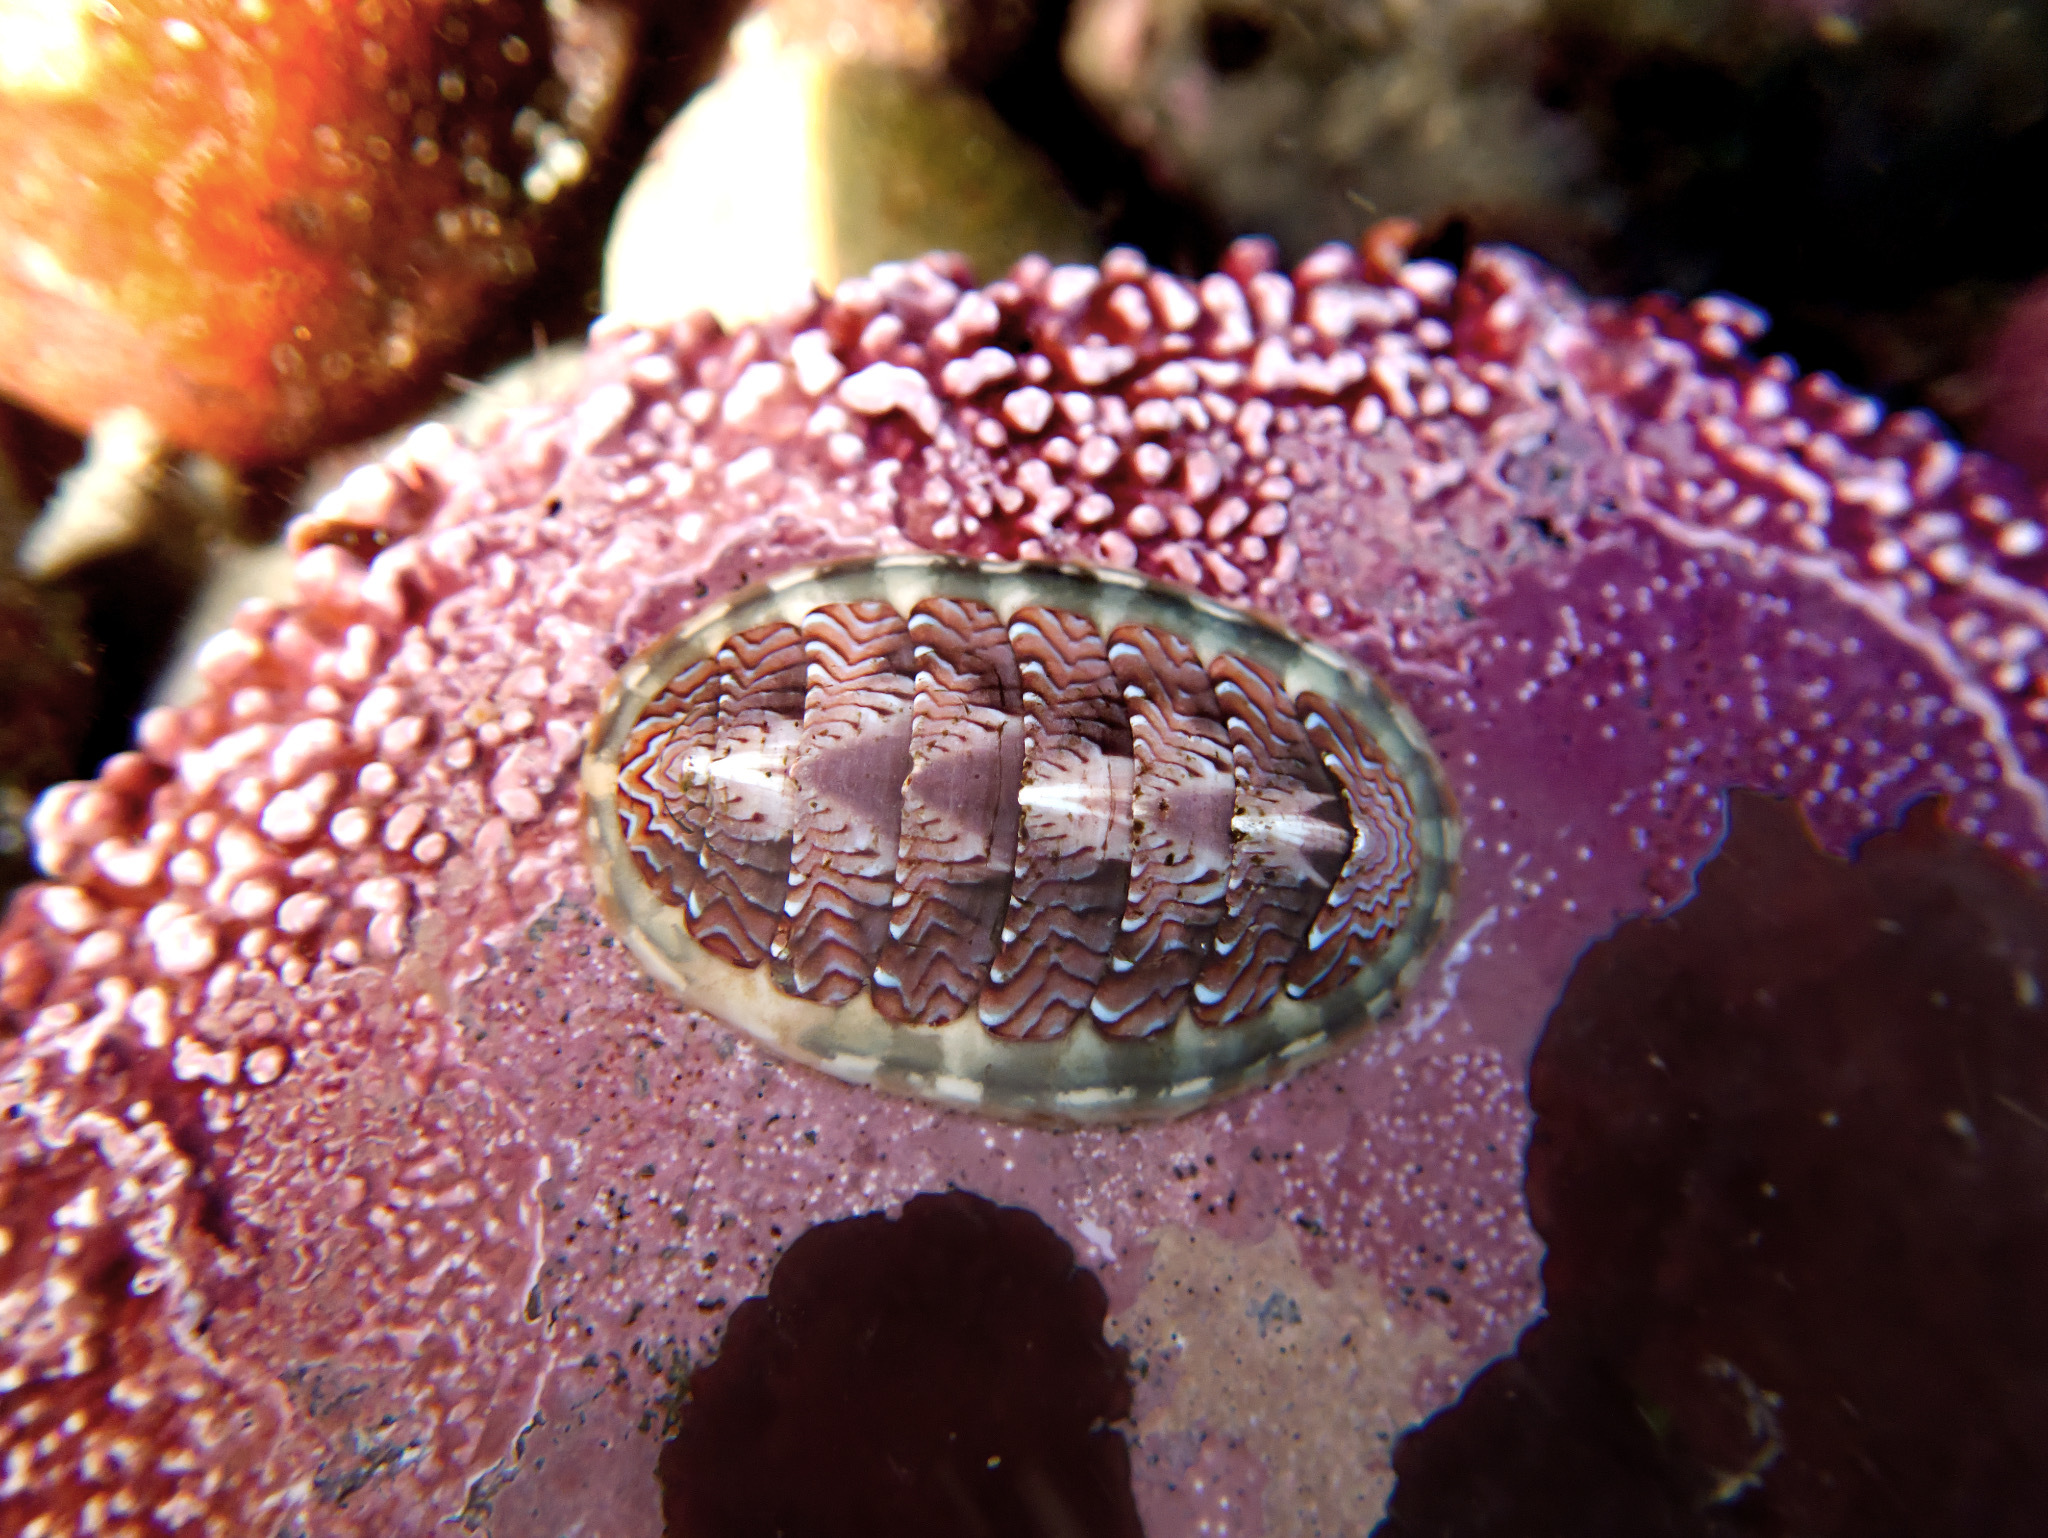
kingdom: Animalia
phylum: Mollusca
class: Polyplacophora
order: Chitonida
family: Tonicellidae
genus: Tonicella
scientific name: Tonicella lokii
